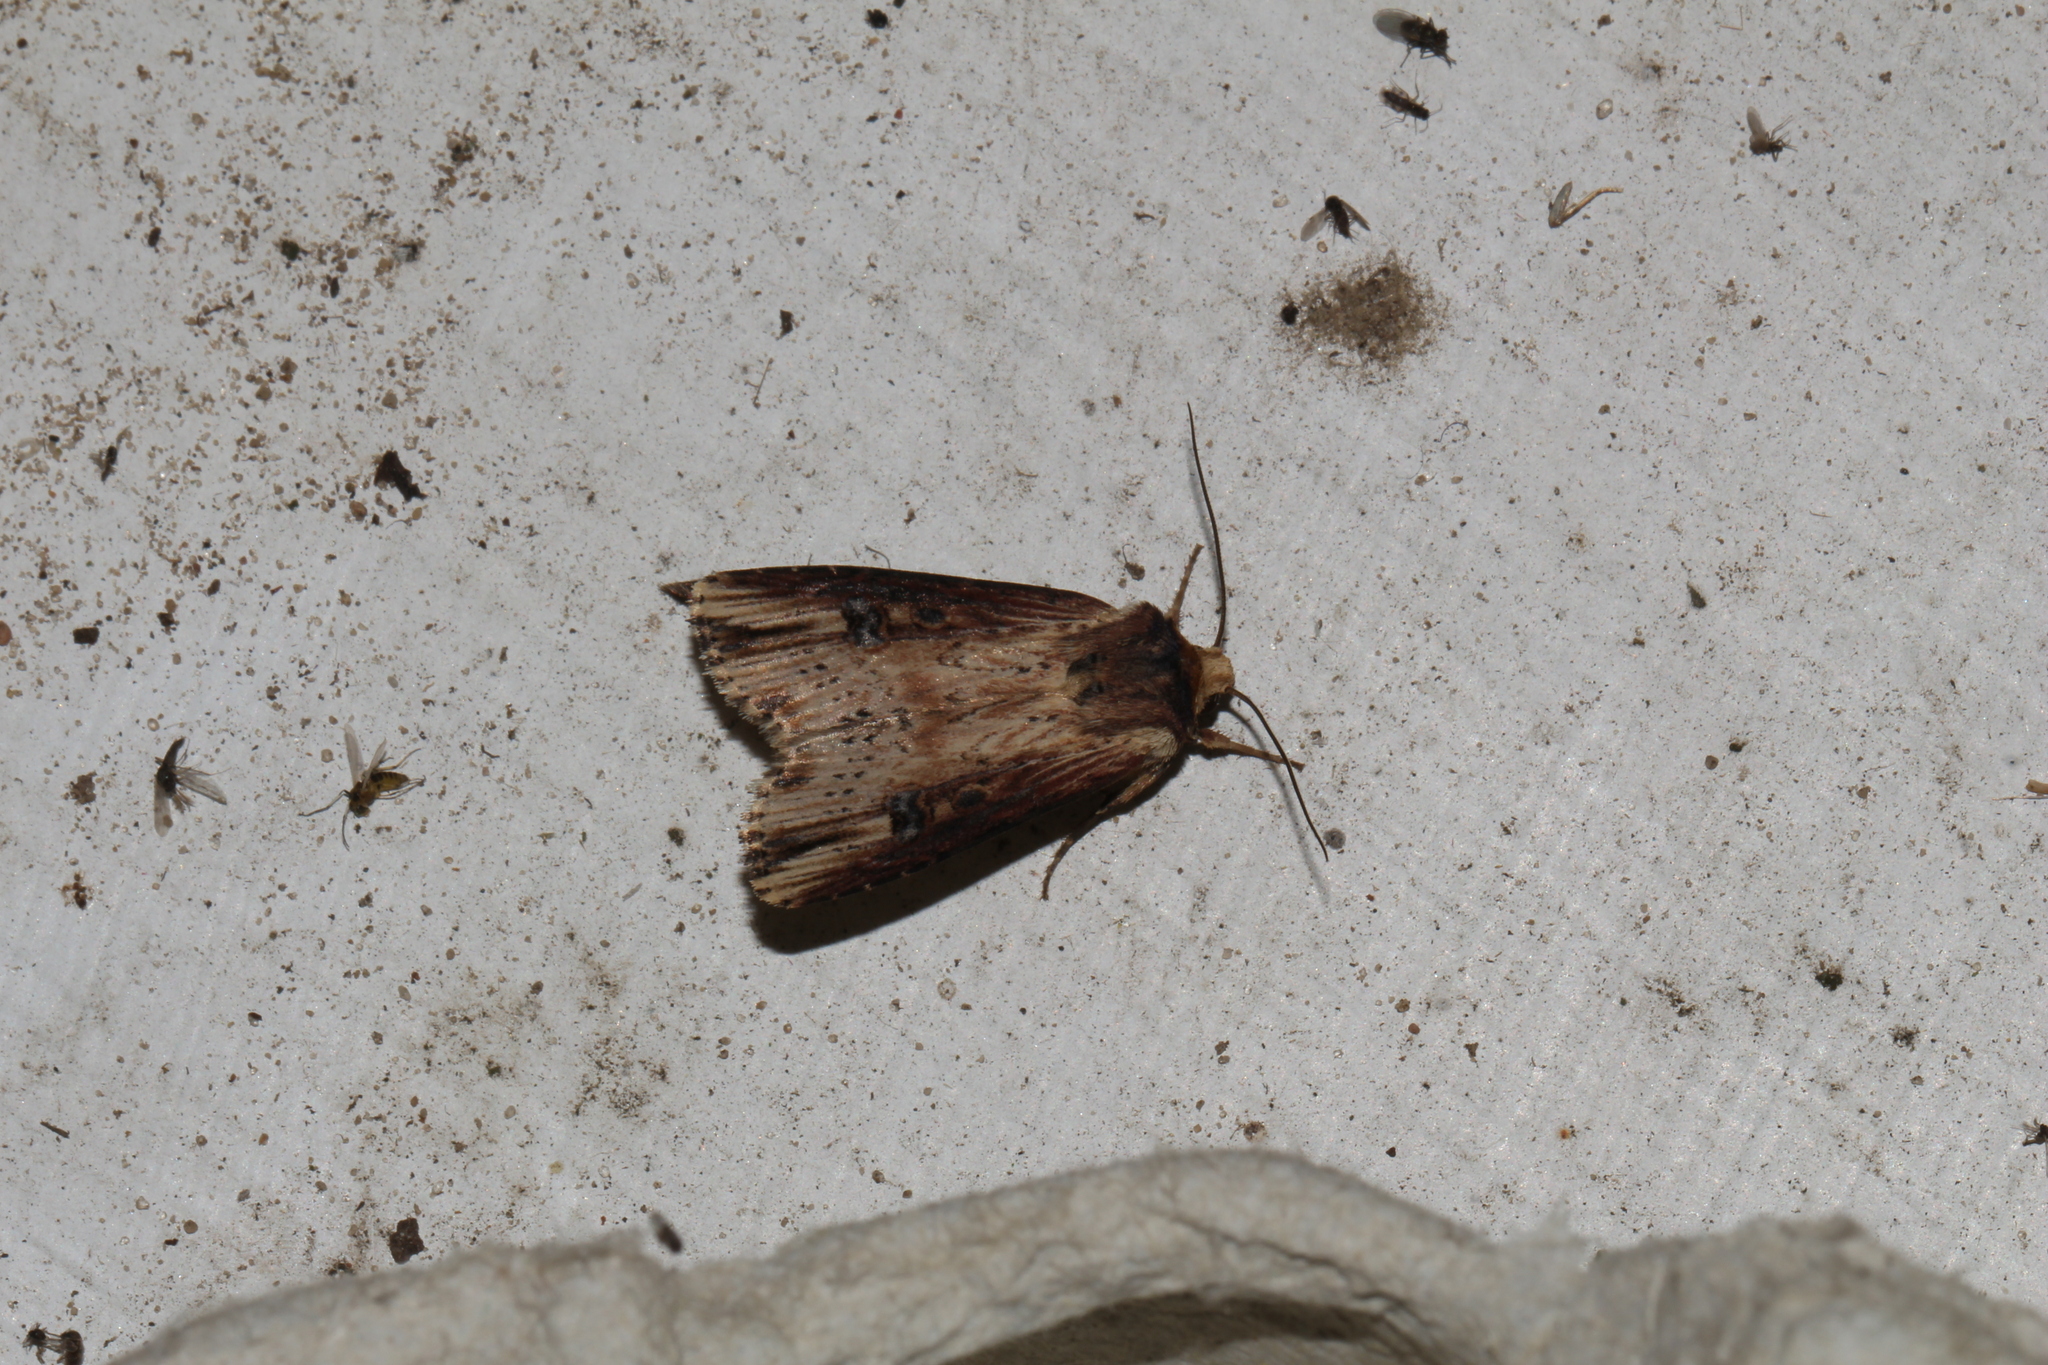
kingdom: Animalia
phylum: Arthropoda
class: Insecta
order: Lepidoptera
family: Noctuidae
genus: Axylia
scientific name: Axylia putris
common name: Flame
